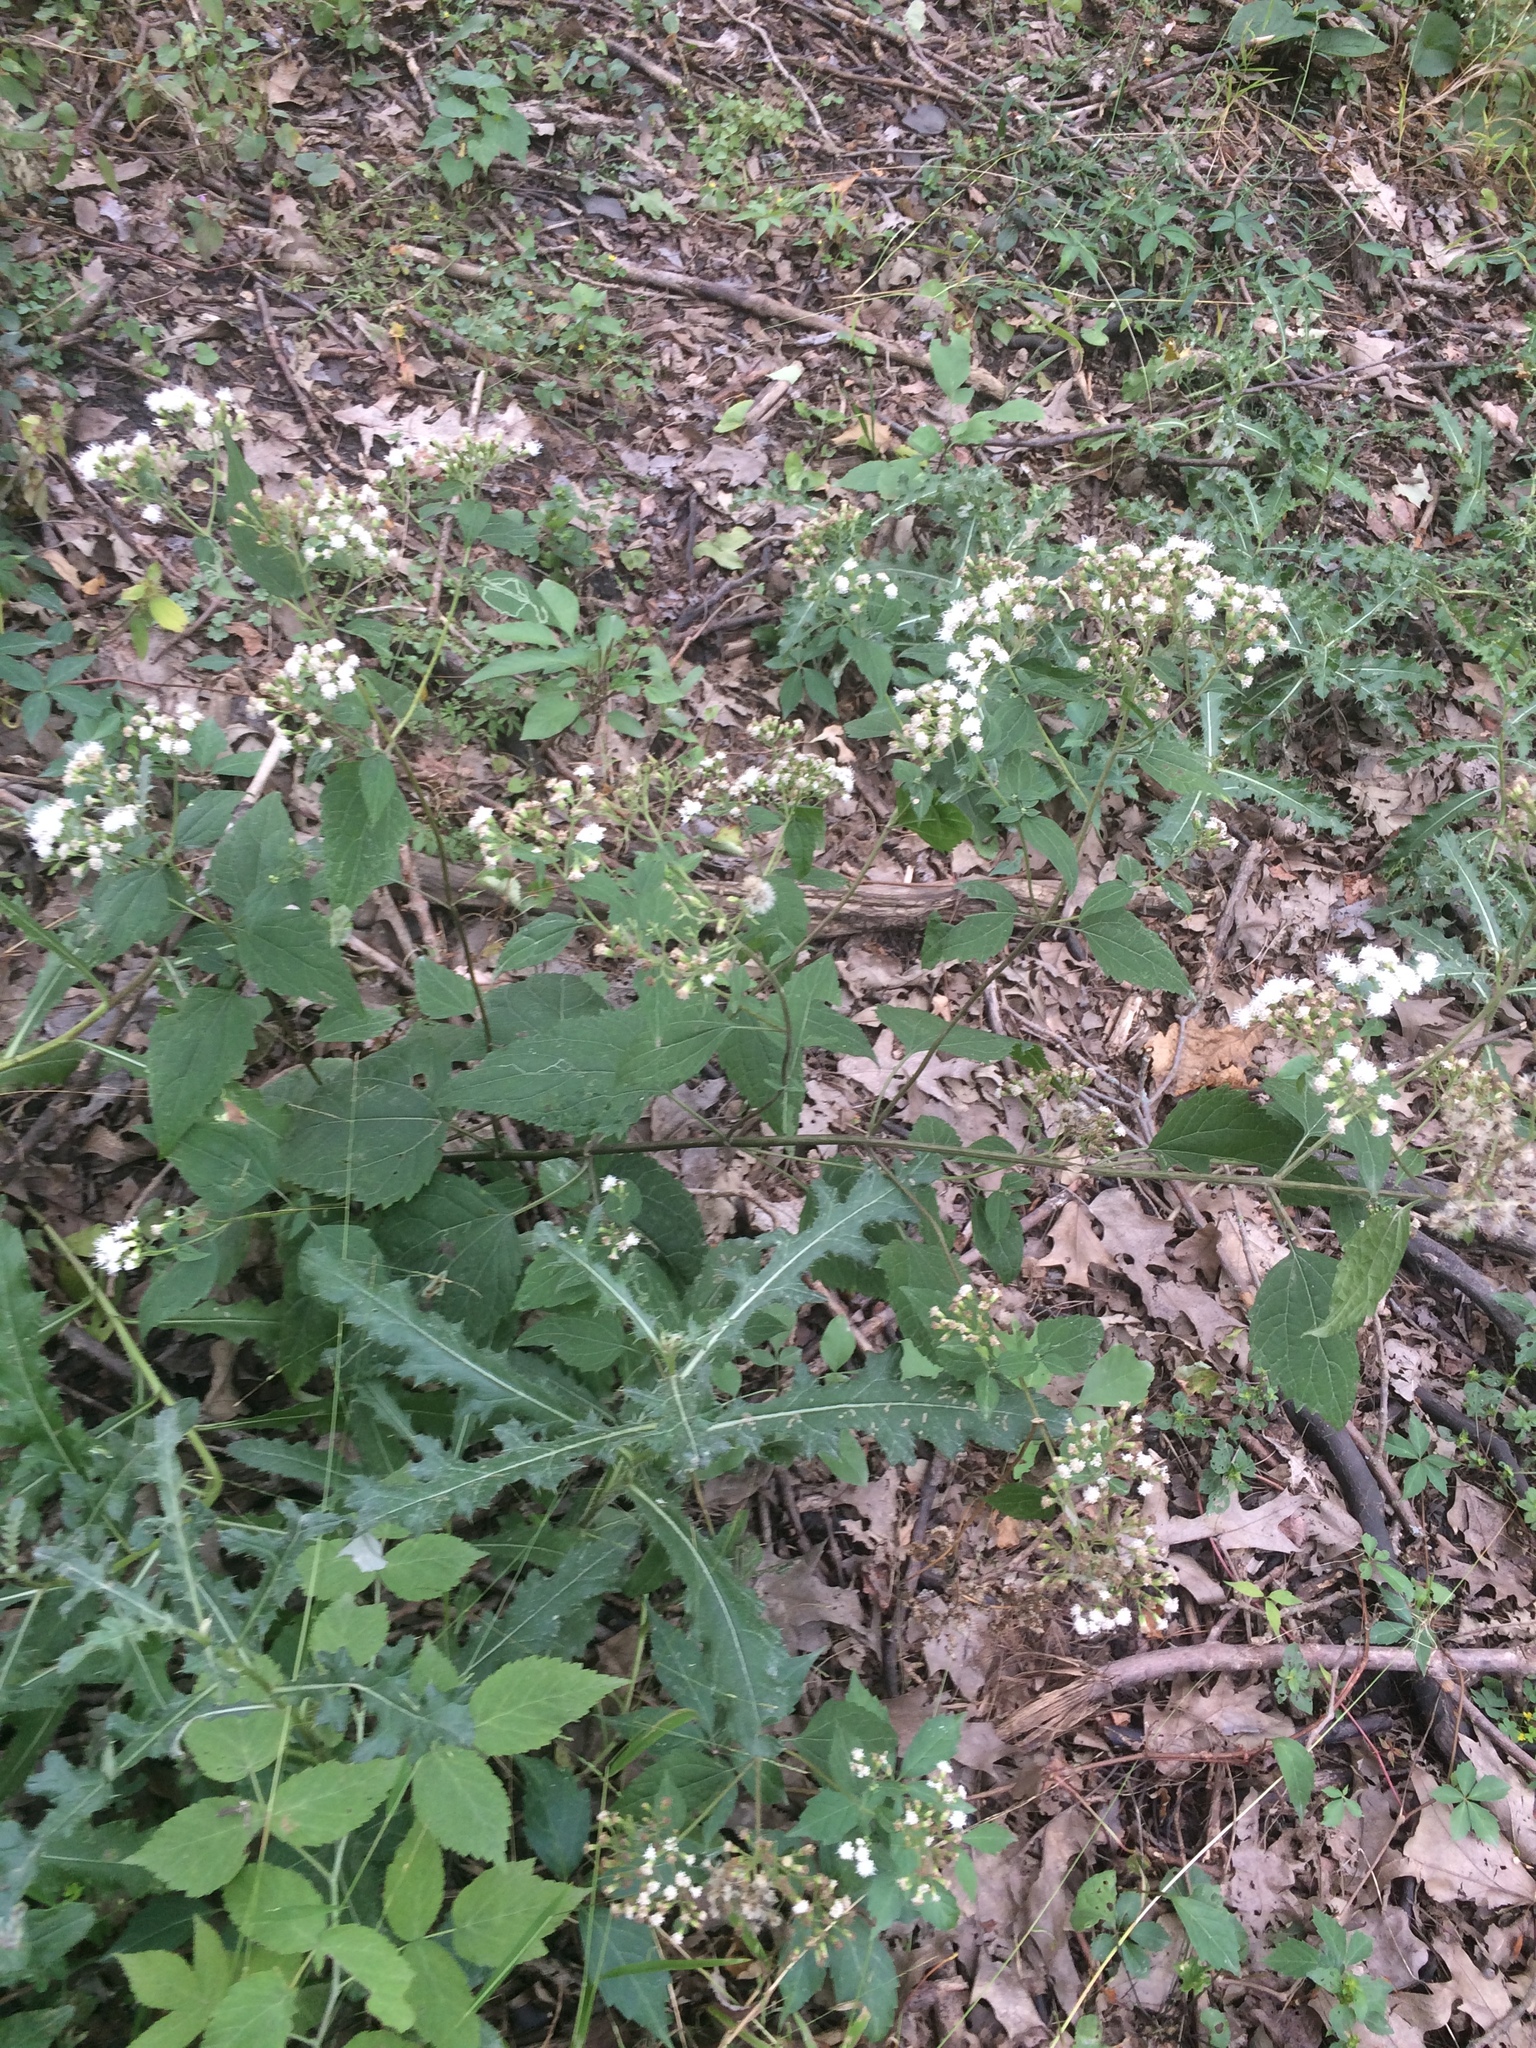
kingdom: Plantae
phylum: Tracheophyta
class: Magnoliopsida
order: Asterales
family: Asteraceae
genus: Ageratina
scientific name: Ageratina altissima
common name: White snakeroot
